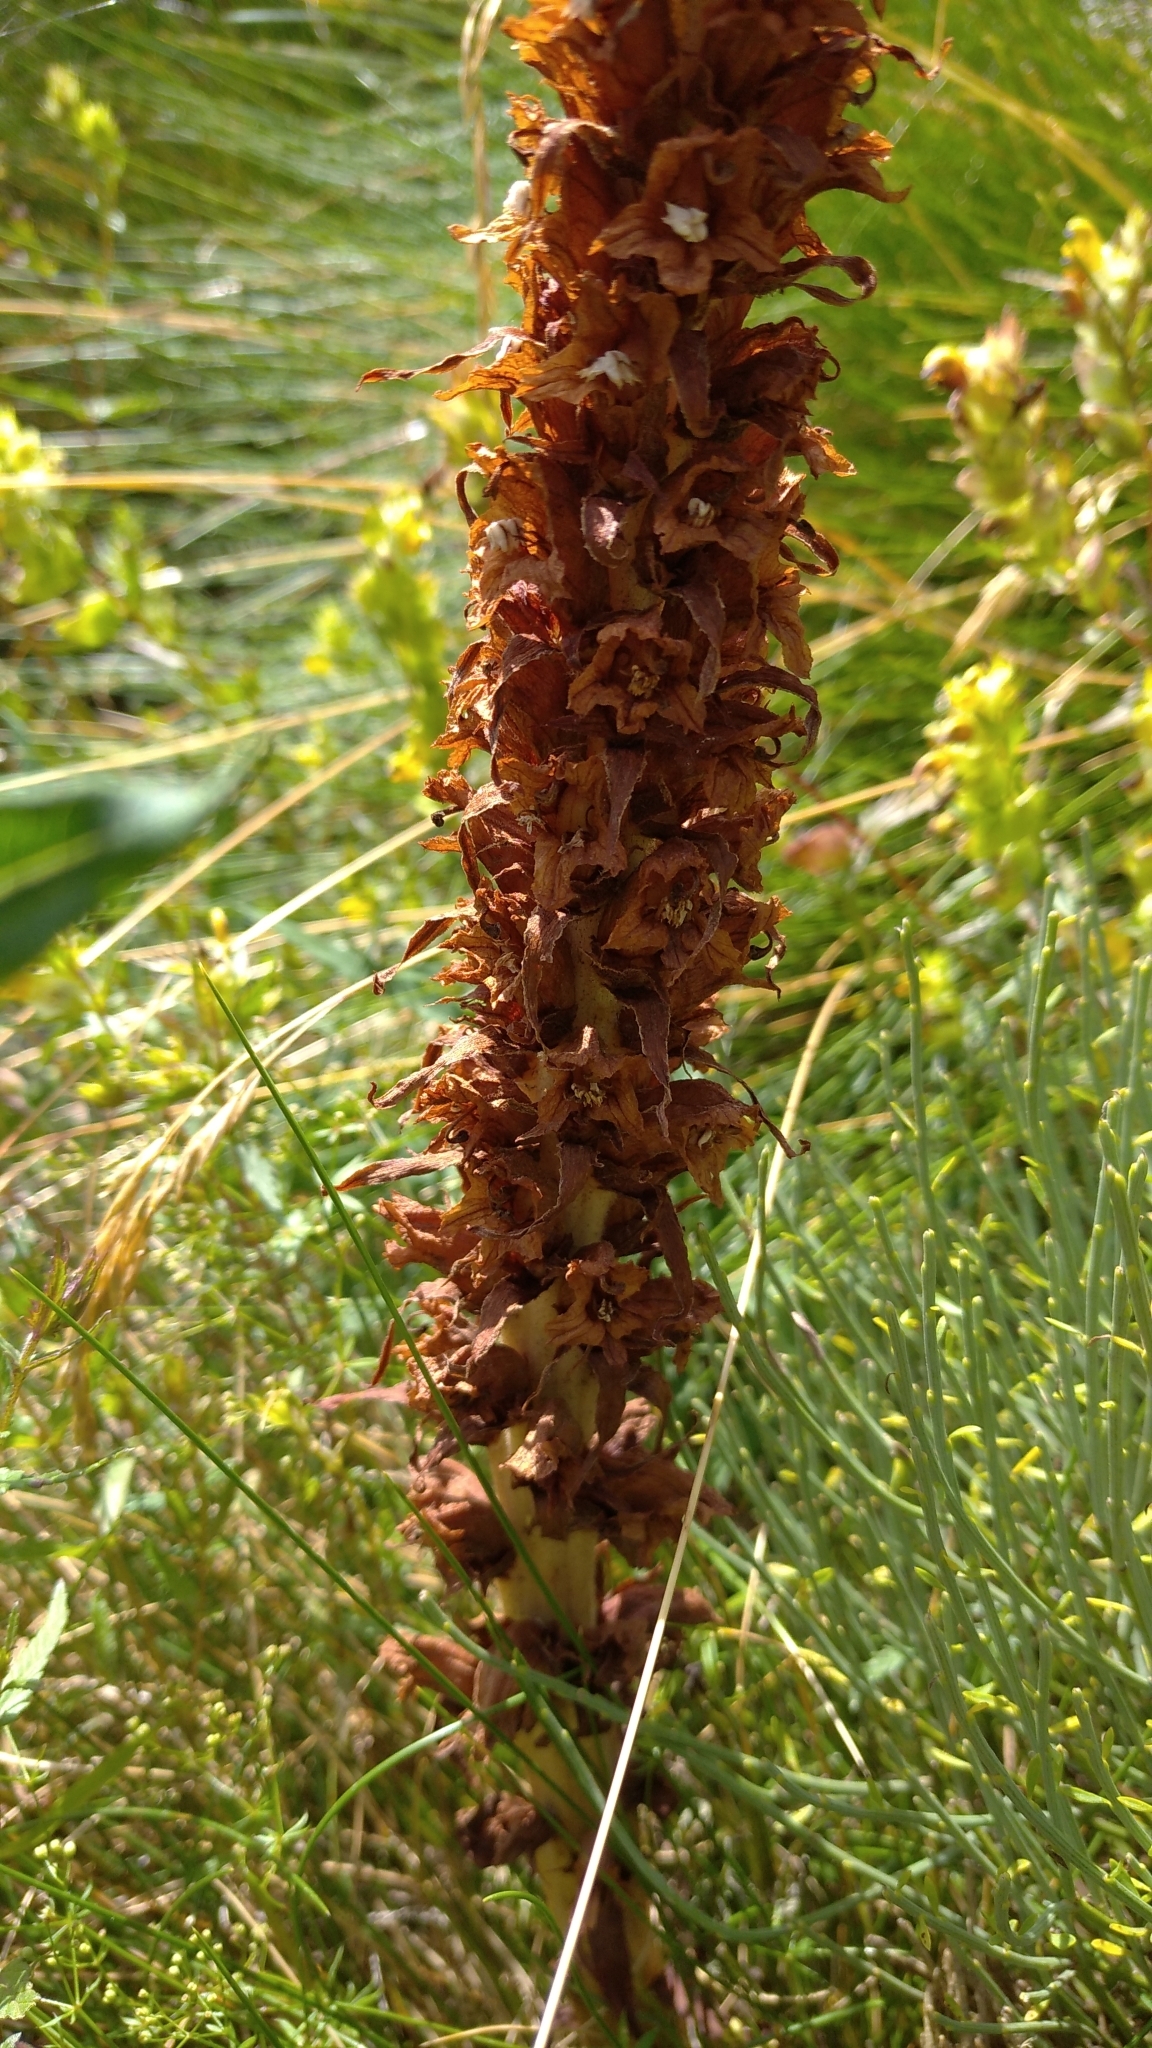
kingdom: Plantae
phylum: Tracheophyta
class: Magnoliopsida
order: Lamiales
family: Orobanchaceae
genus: Orobanche
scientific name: Orobanche rapum-genistae
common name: Greater broomrape
